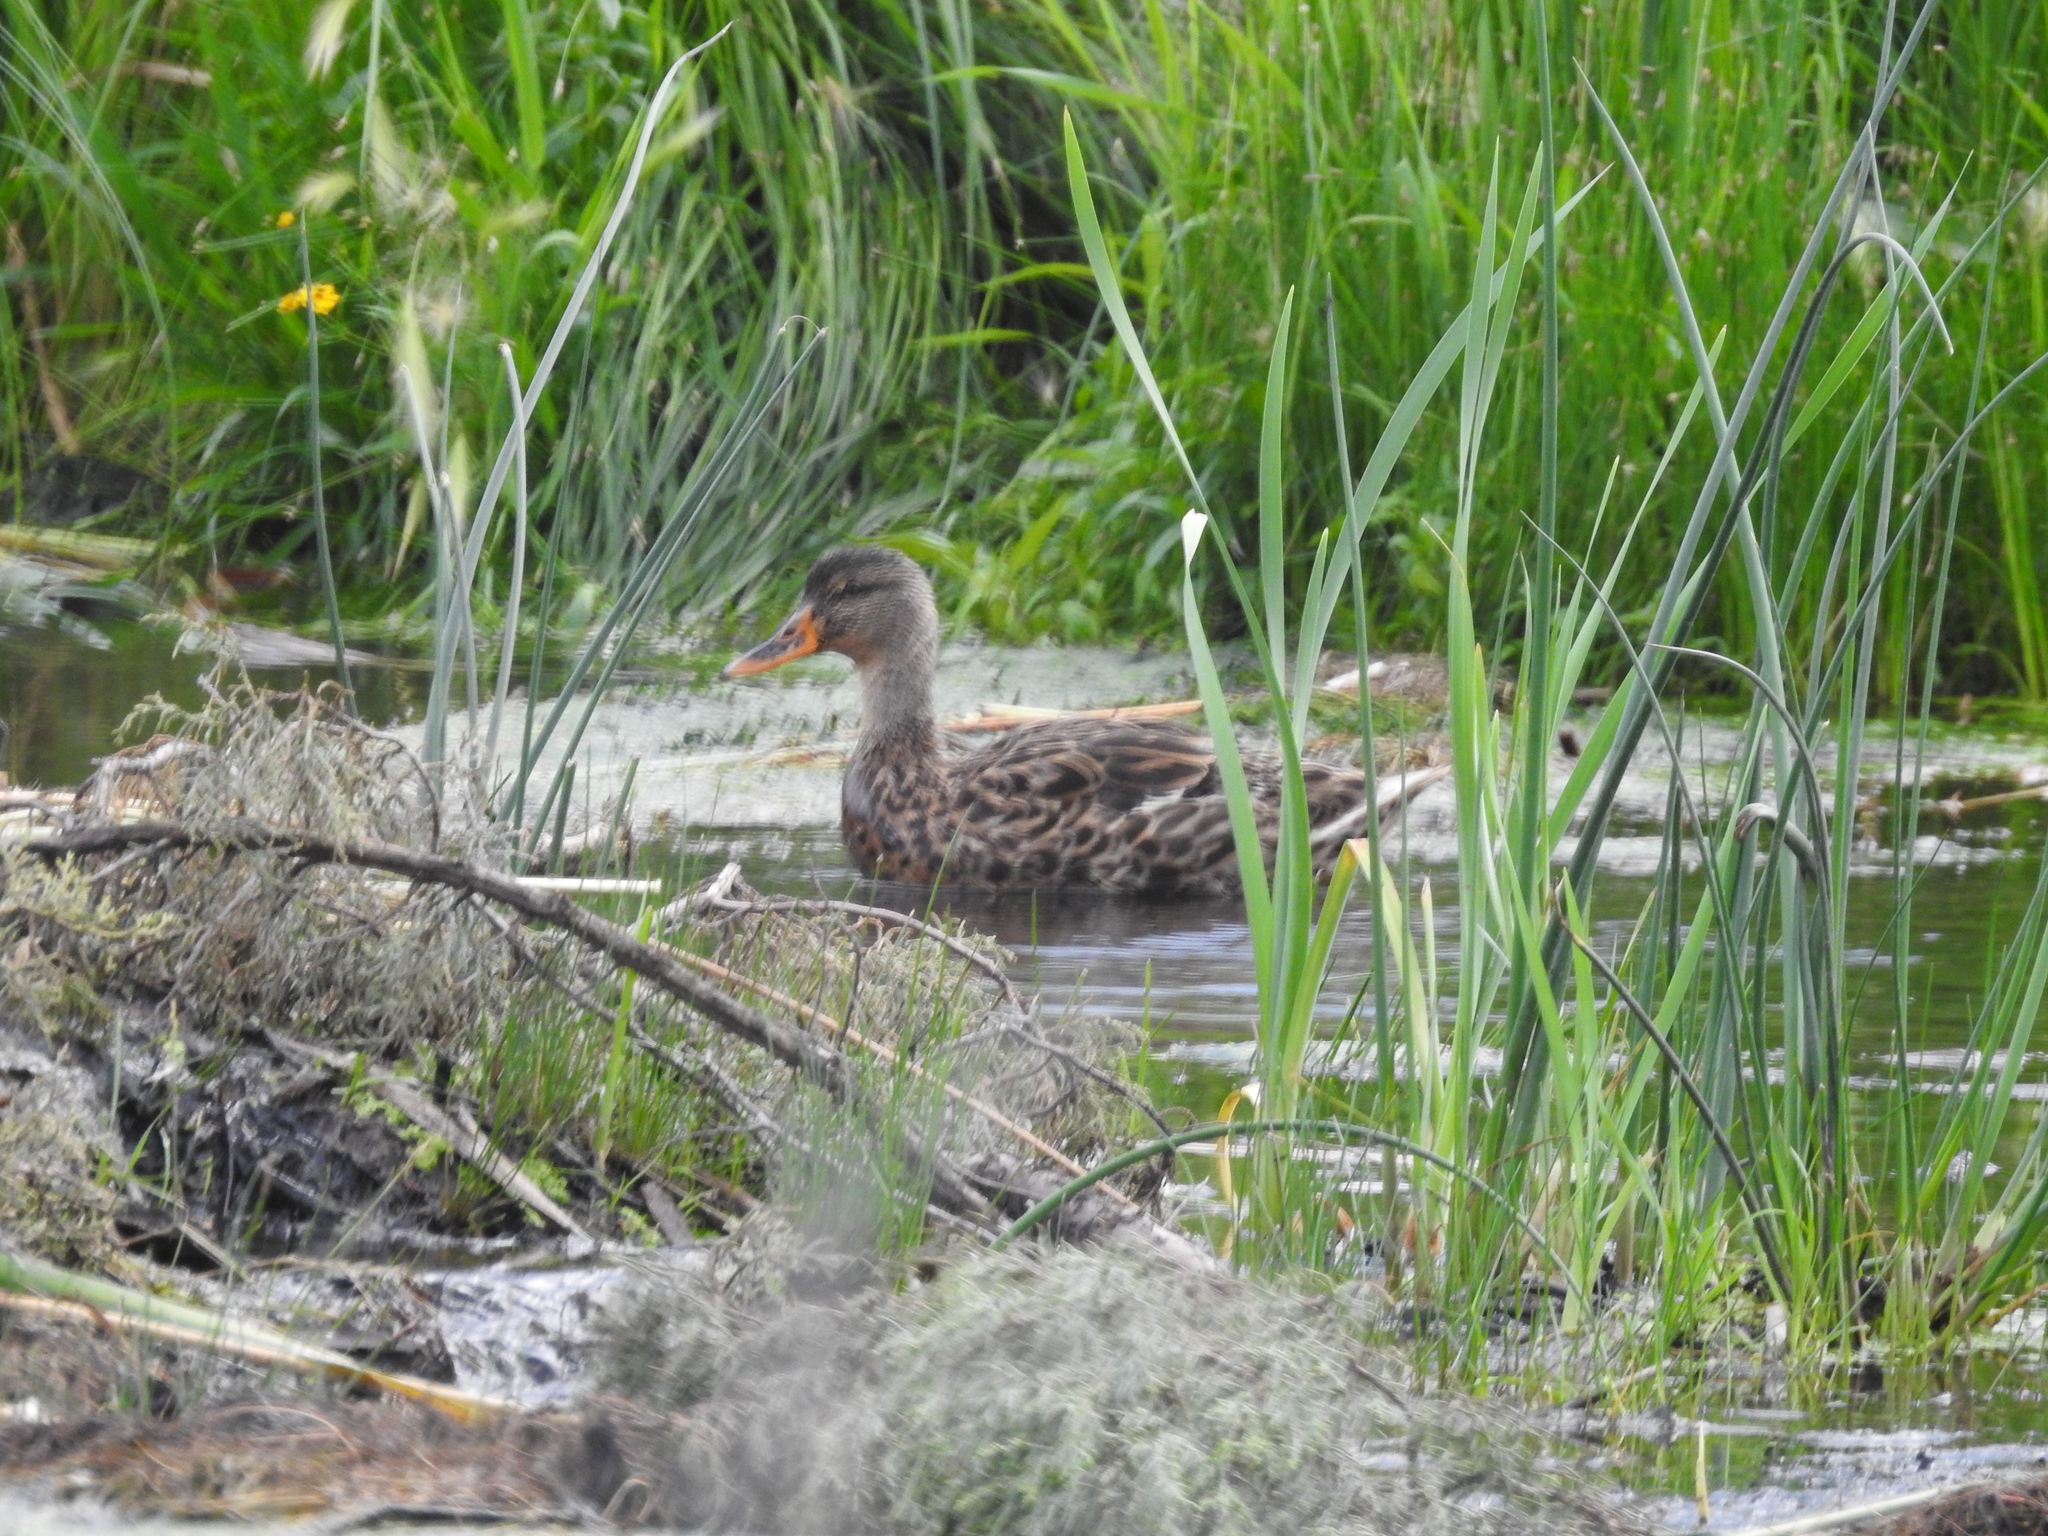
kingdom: Animalia
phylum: Chordata
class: Aves
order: Anseriformes
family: Anatidae
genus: Anas
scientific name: Anas platyrhynchos
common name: Mallard
